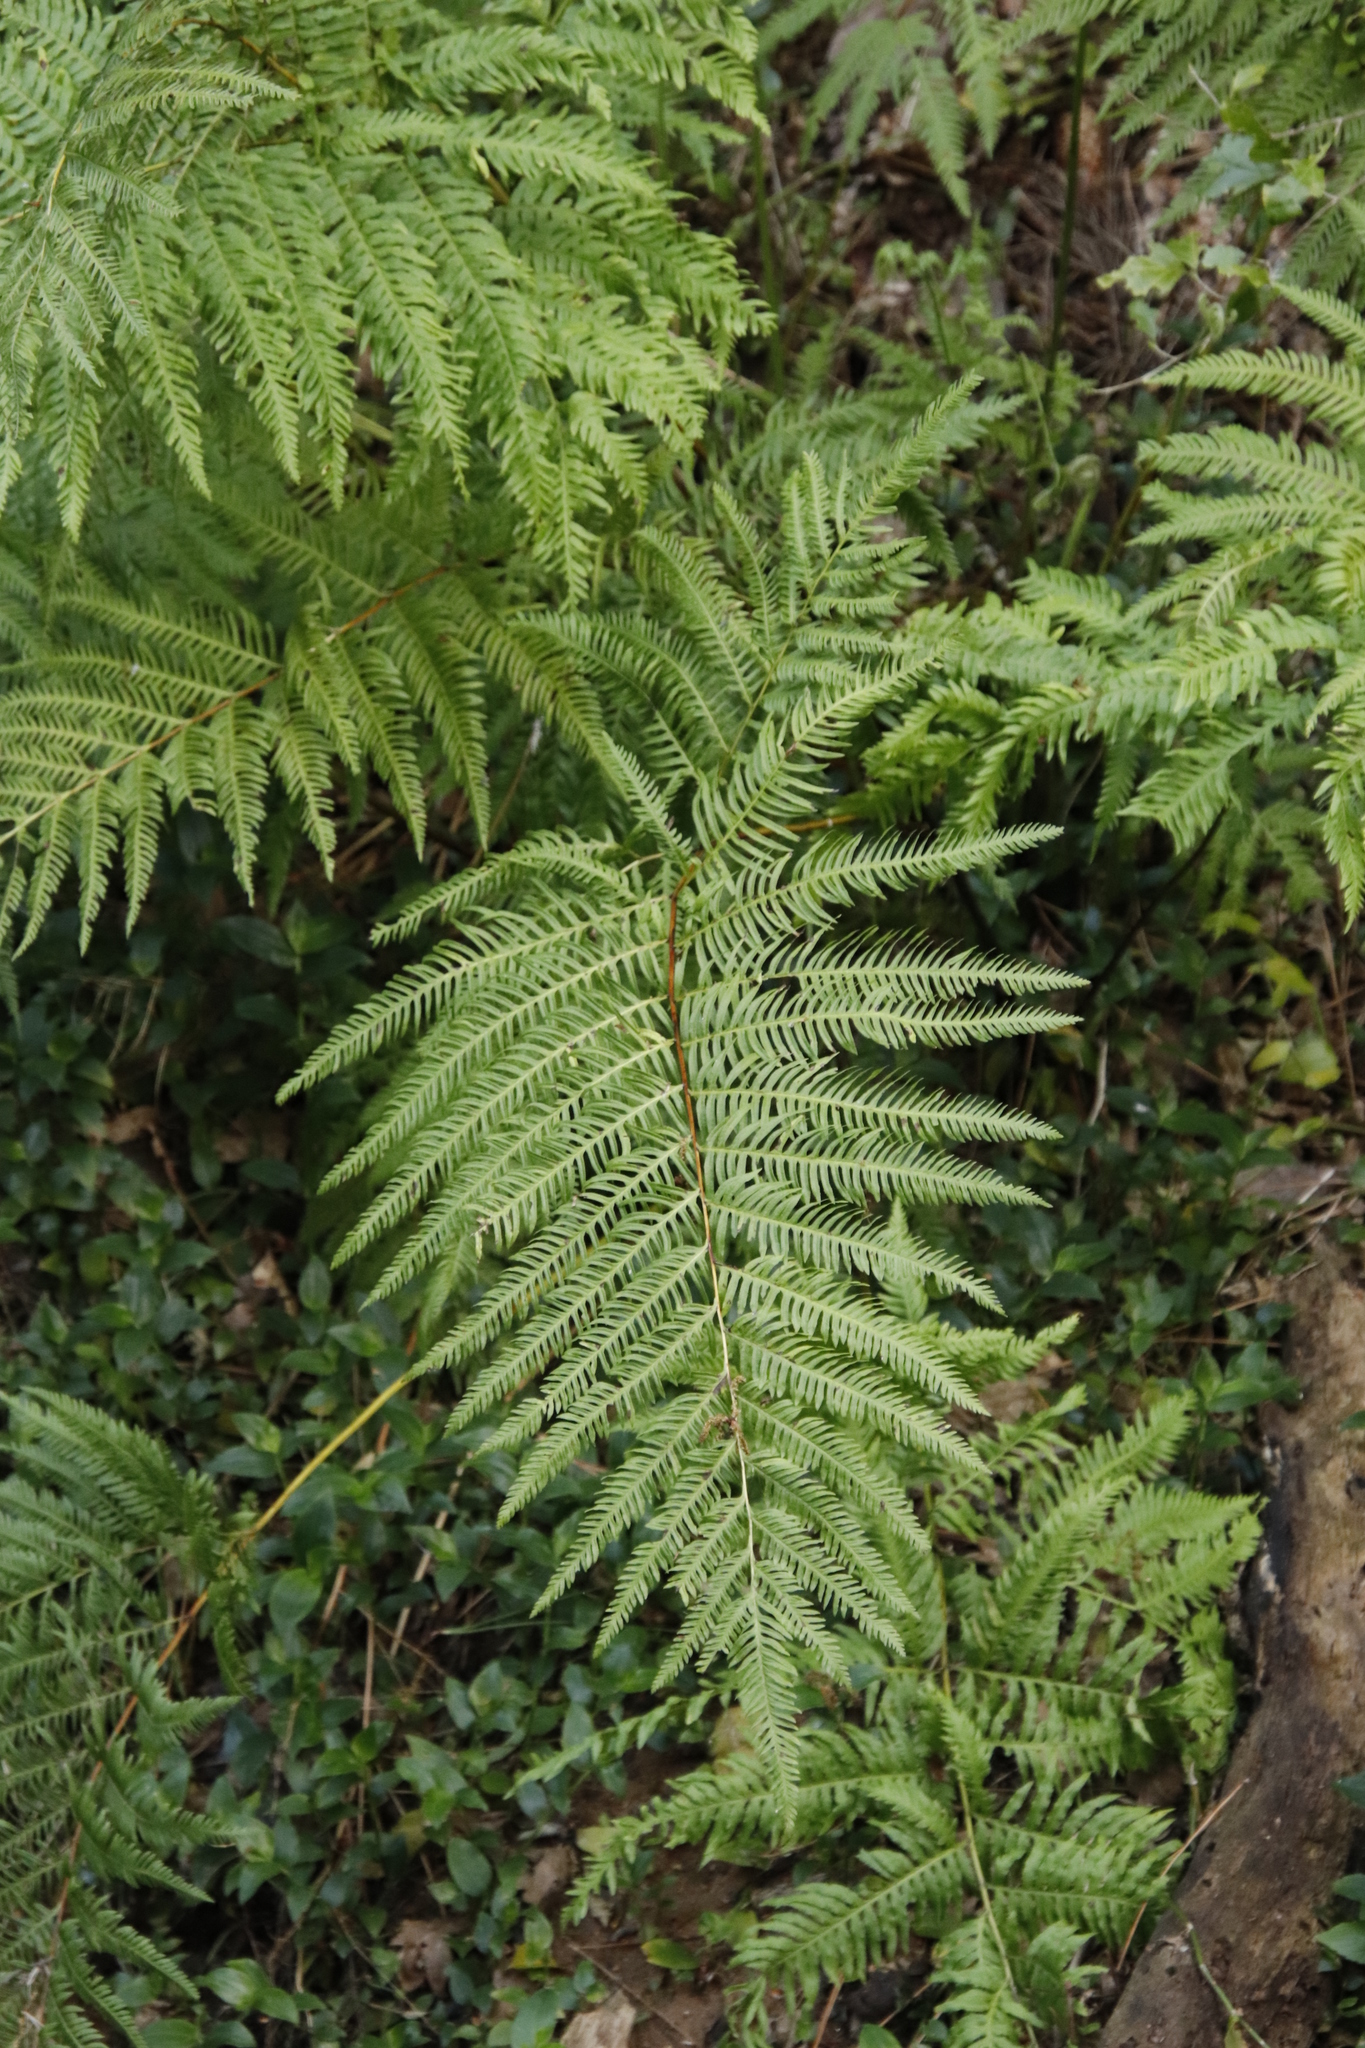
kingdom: Plantae
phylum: Tracheophyta
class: Polypodiopsida
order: Polypodiales
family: Pteridaceae
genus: Pteris
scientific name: Pteris dentata
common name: Toothed brake
